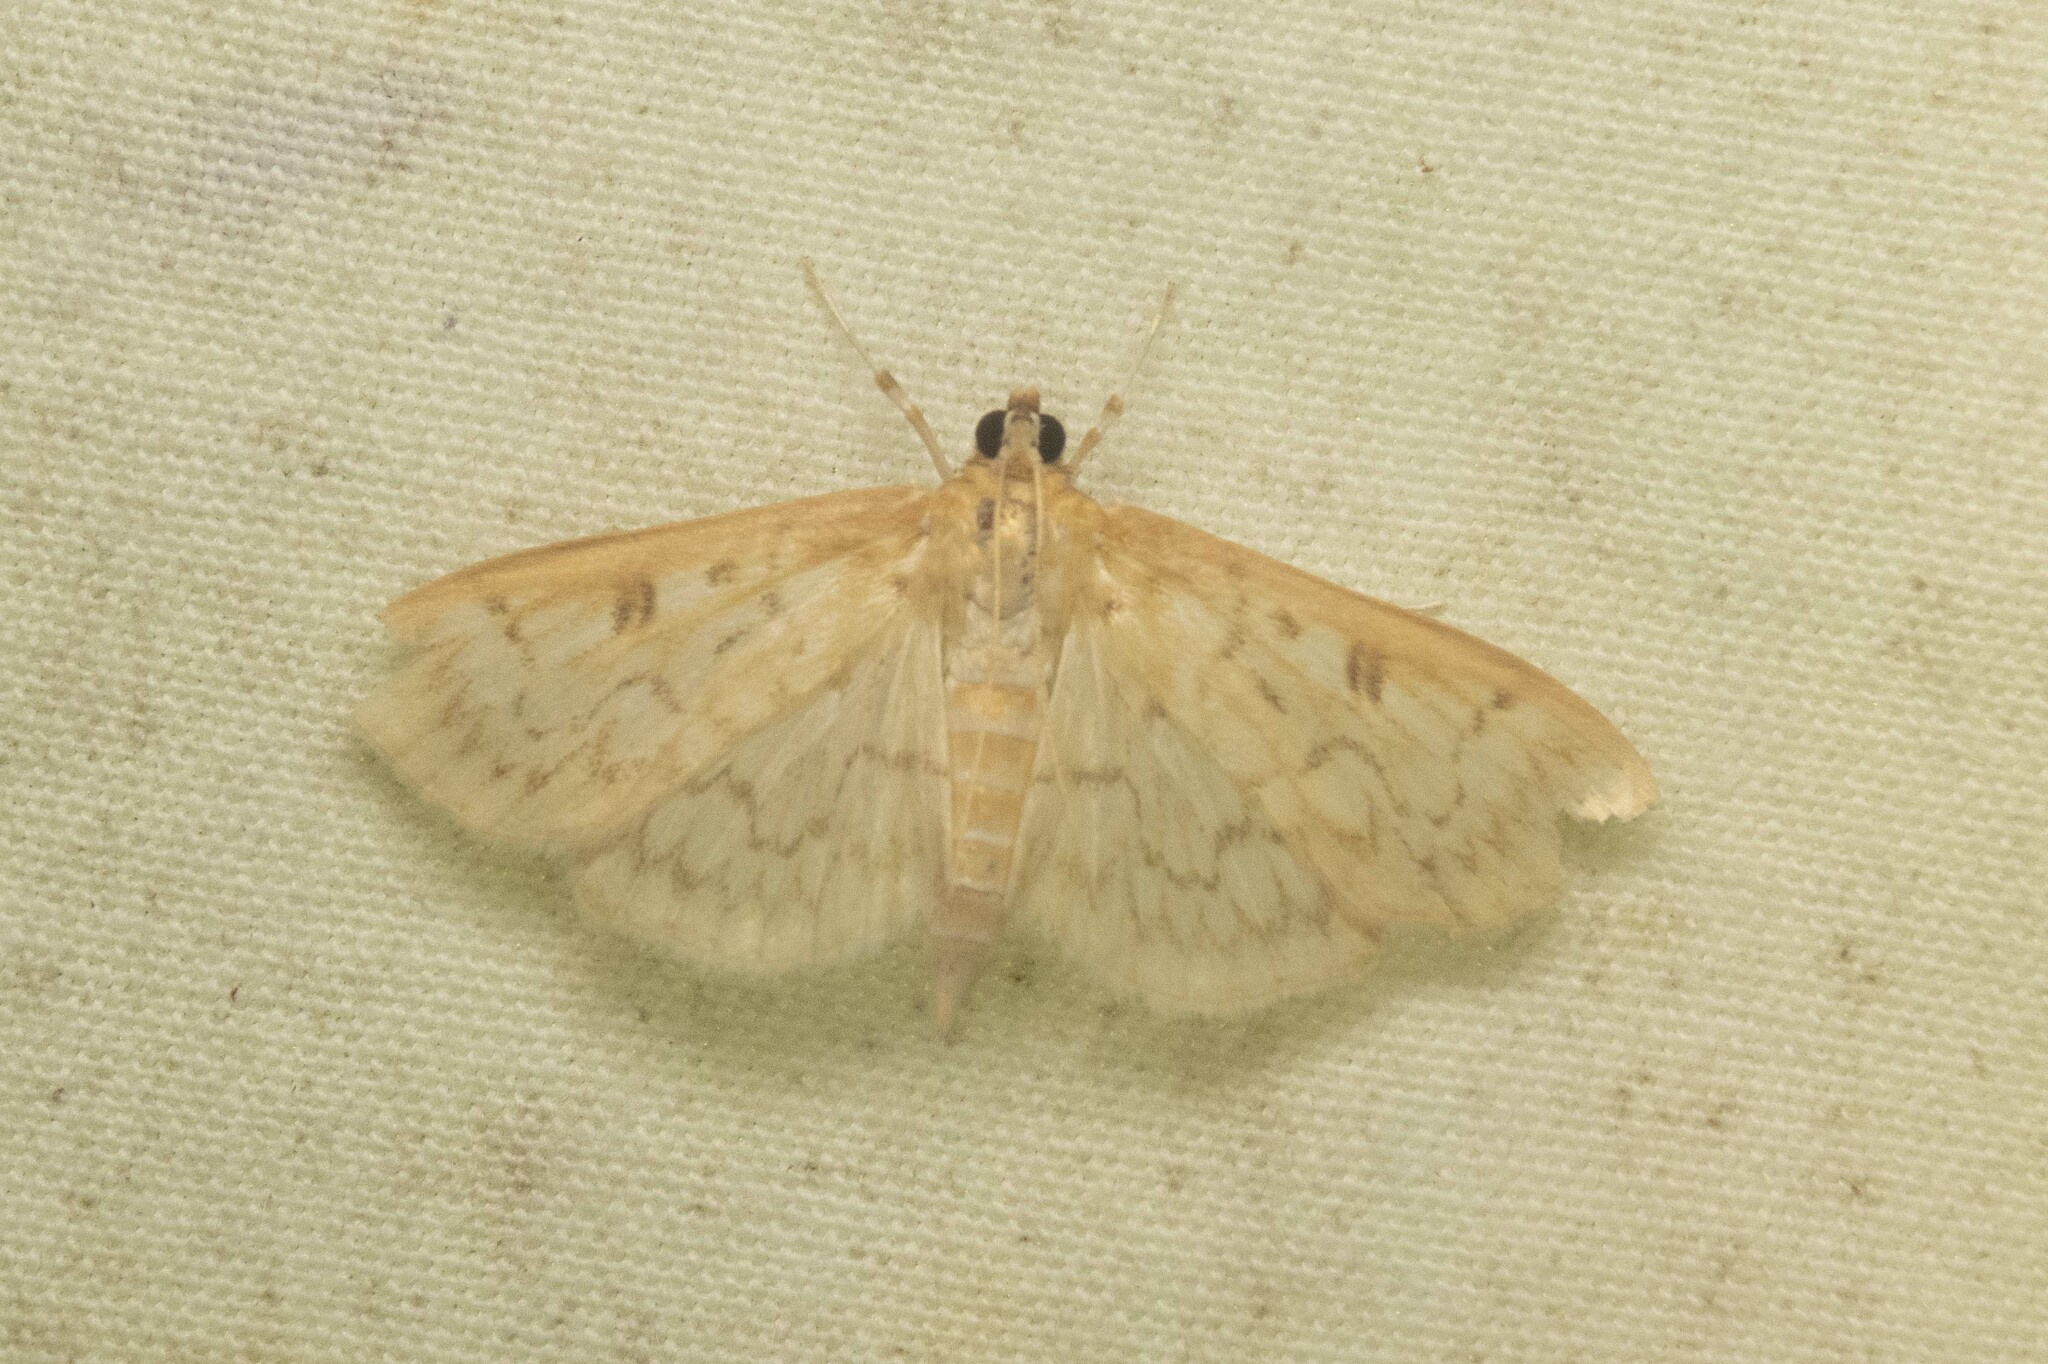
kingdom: Animalia
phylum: Arthropoda
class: Insecta
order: Lepidoptera
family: Crambidae
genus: Herpetogramma
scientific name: Herpetogramma aquilonalis
